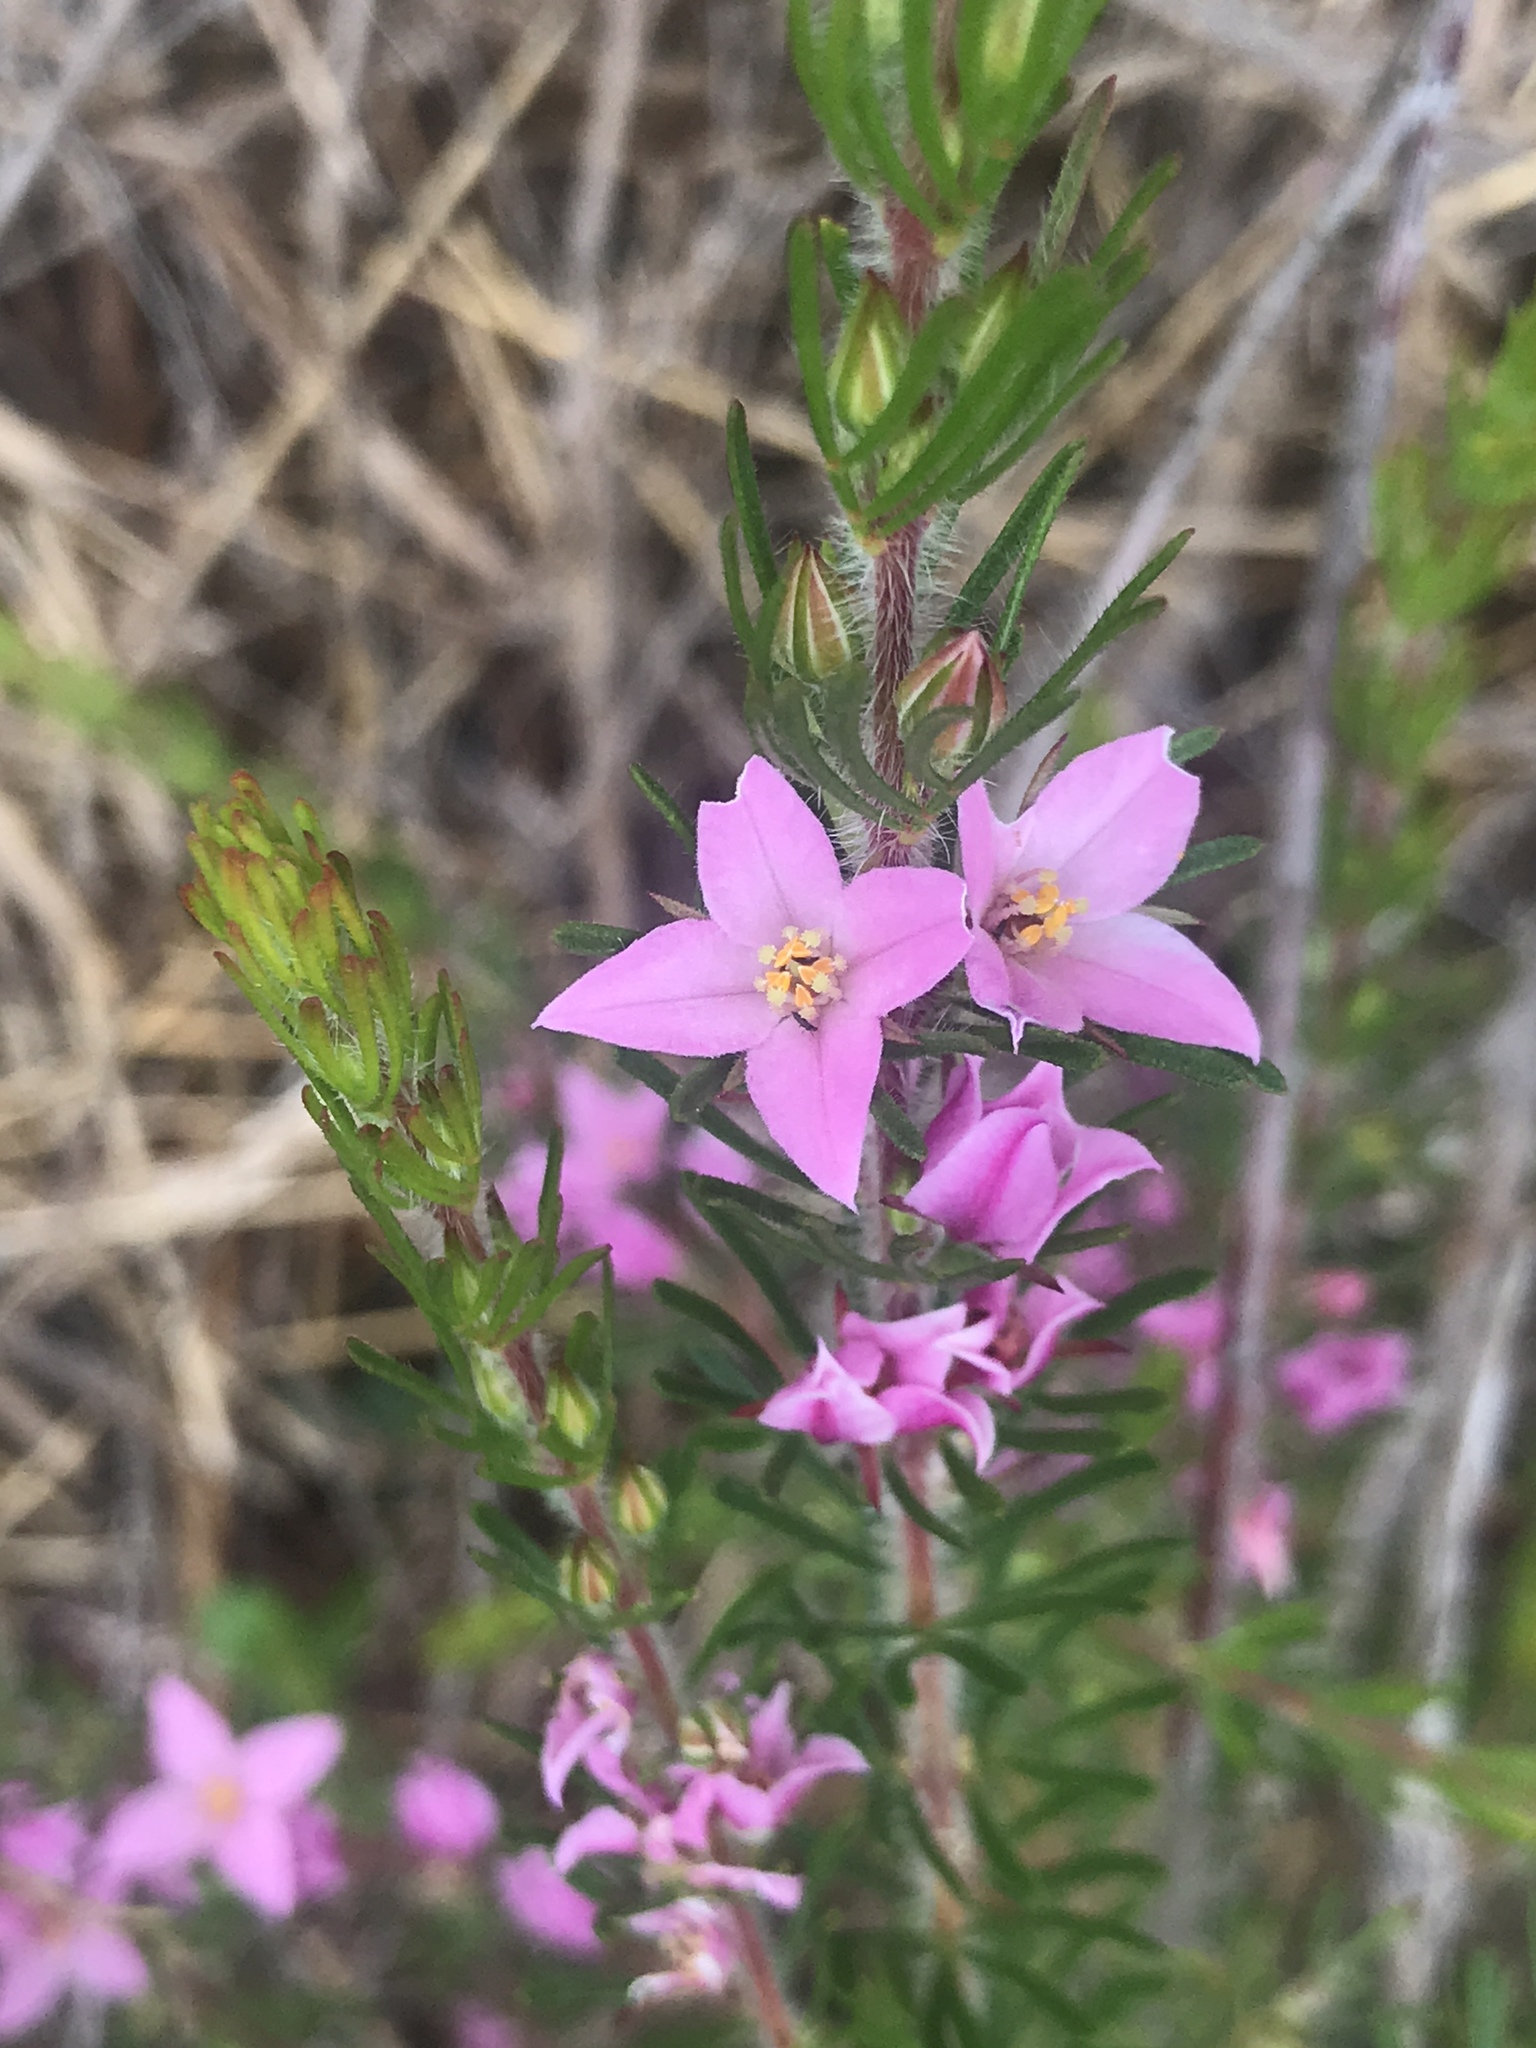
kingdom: Plantae
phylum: Tracheophyta
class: Magnoliopsida
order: Sapindales
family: Rutaceae
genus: Boronia
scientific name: Boronia stricta
